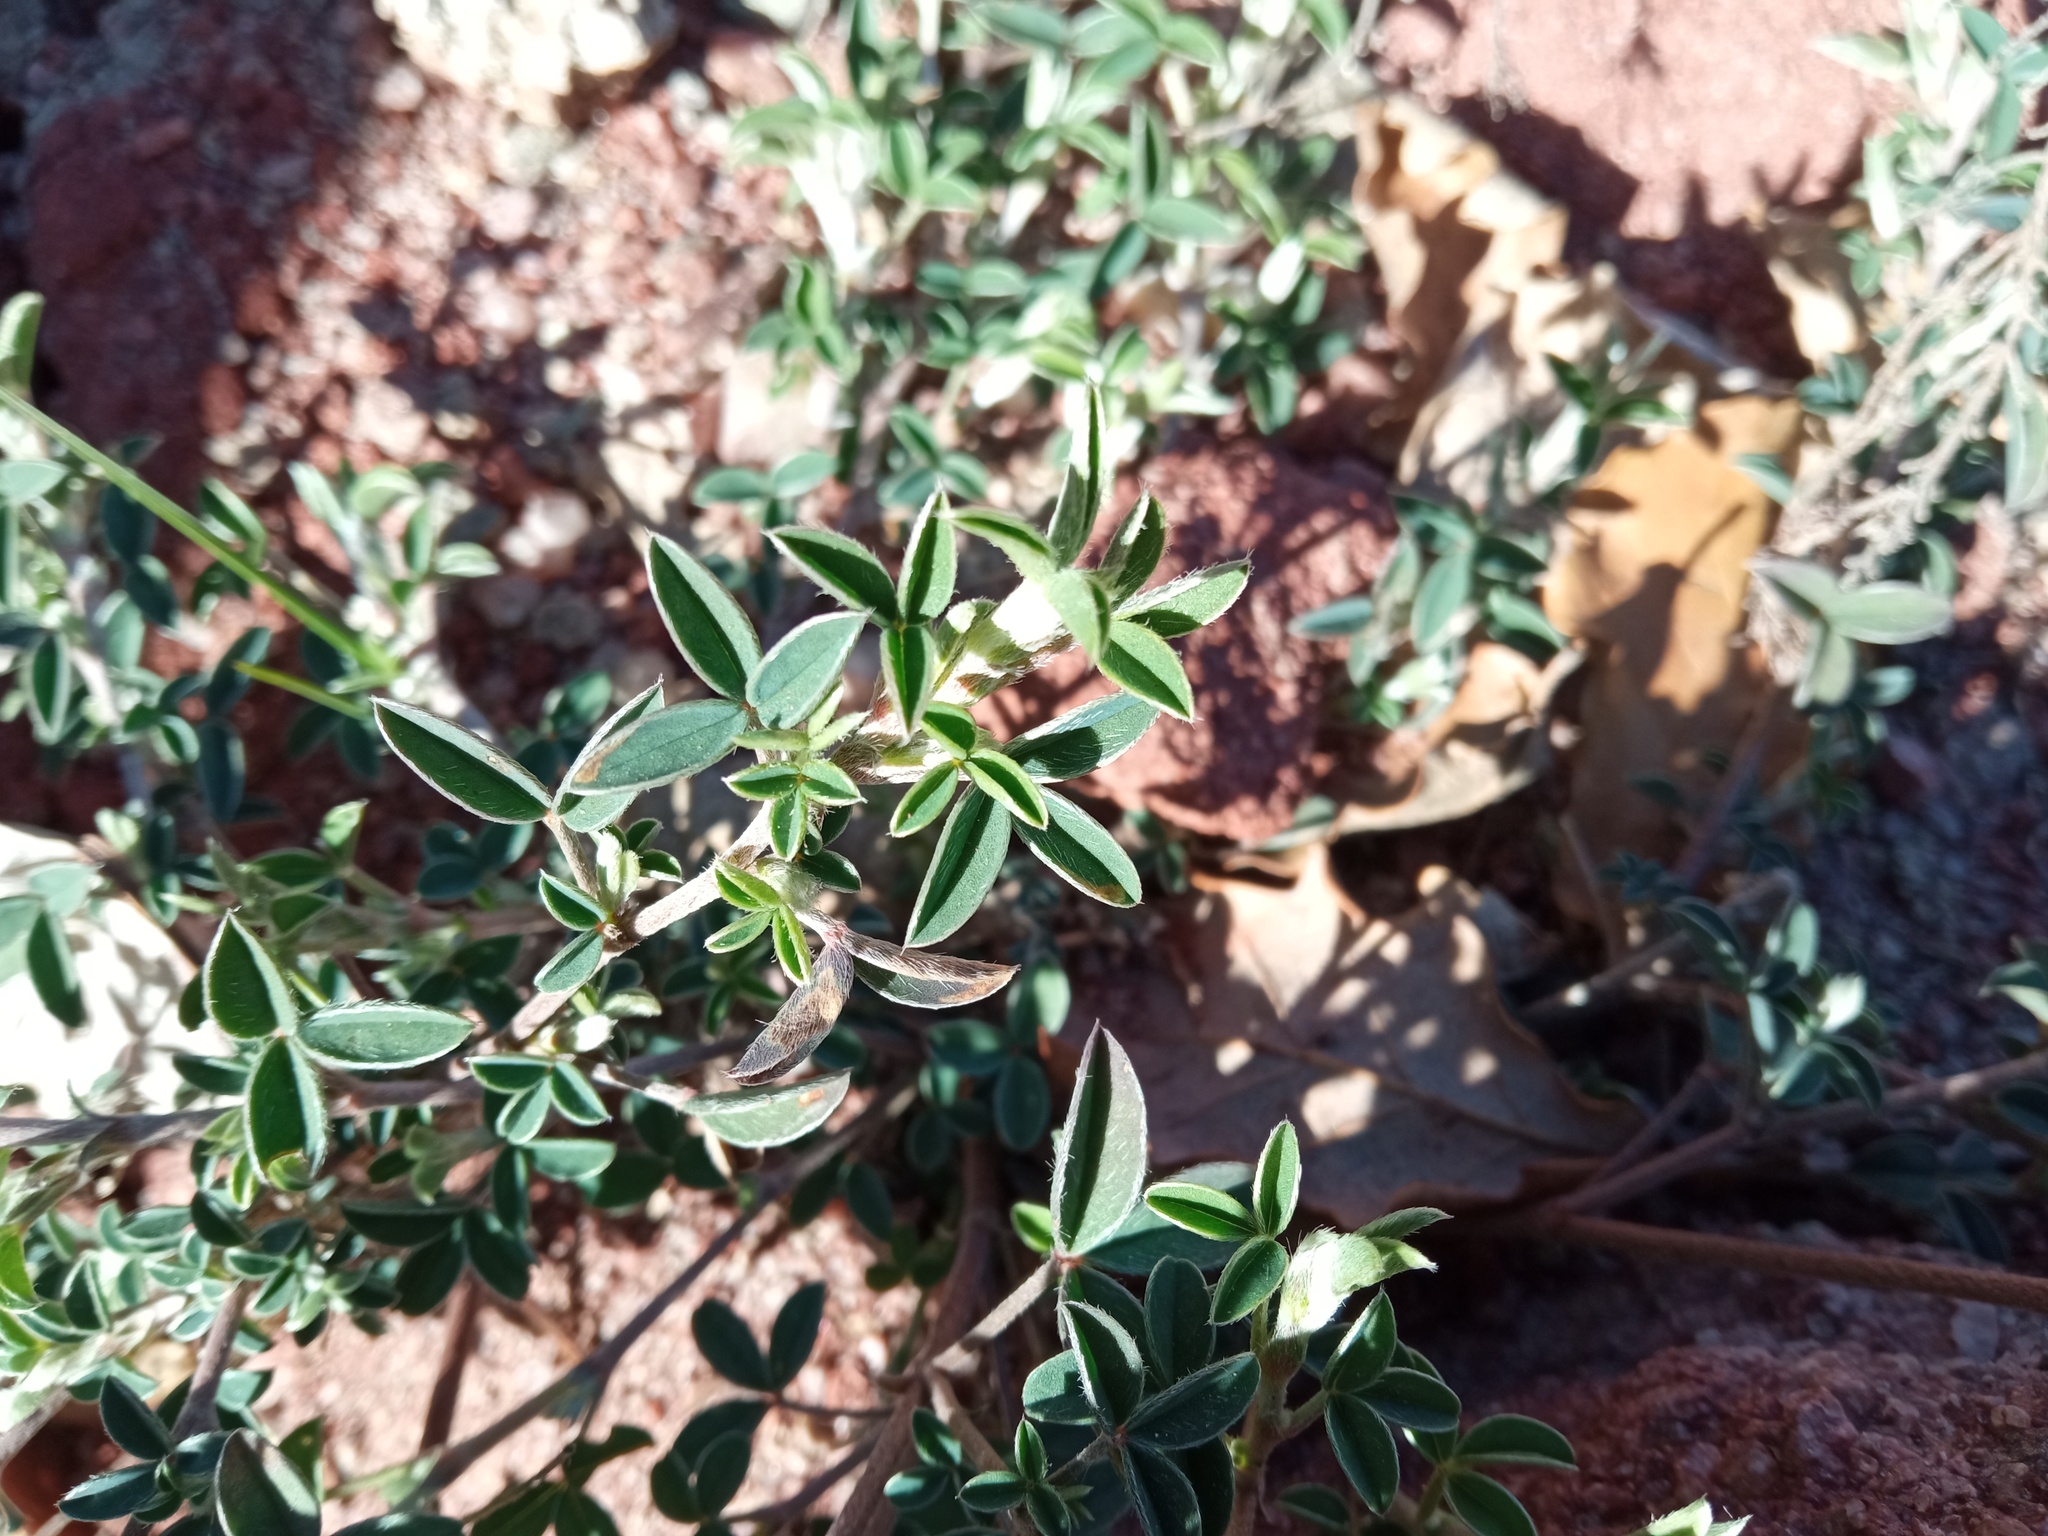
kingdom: Plantae
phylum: Tracheophyta
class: Magnoliopsida
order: Fabales
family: Fabaceae
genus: Argyrolobium
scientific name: Argyrolobium zanonii
